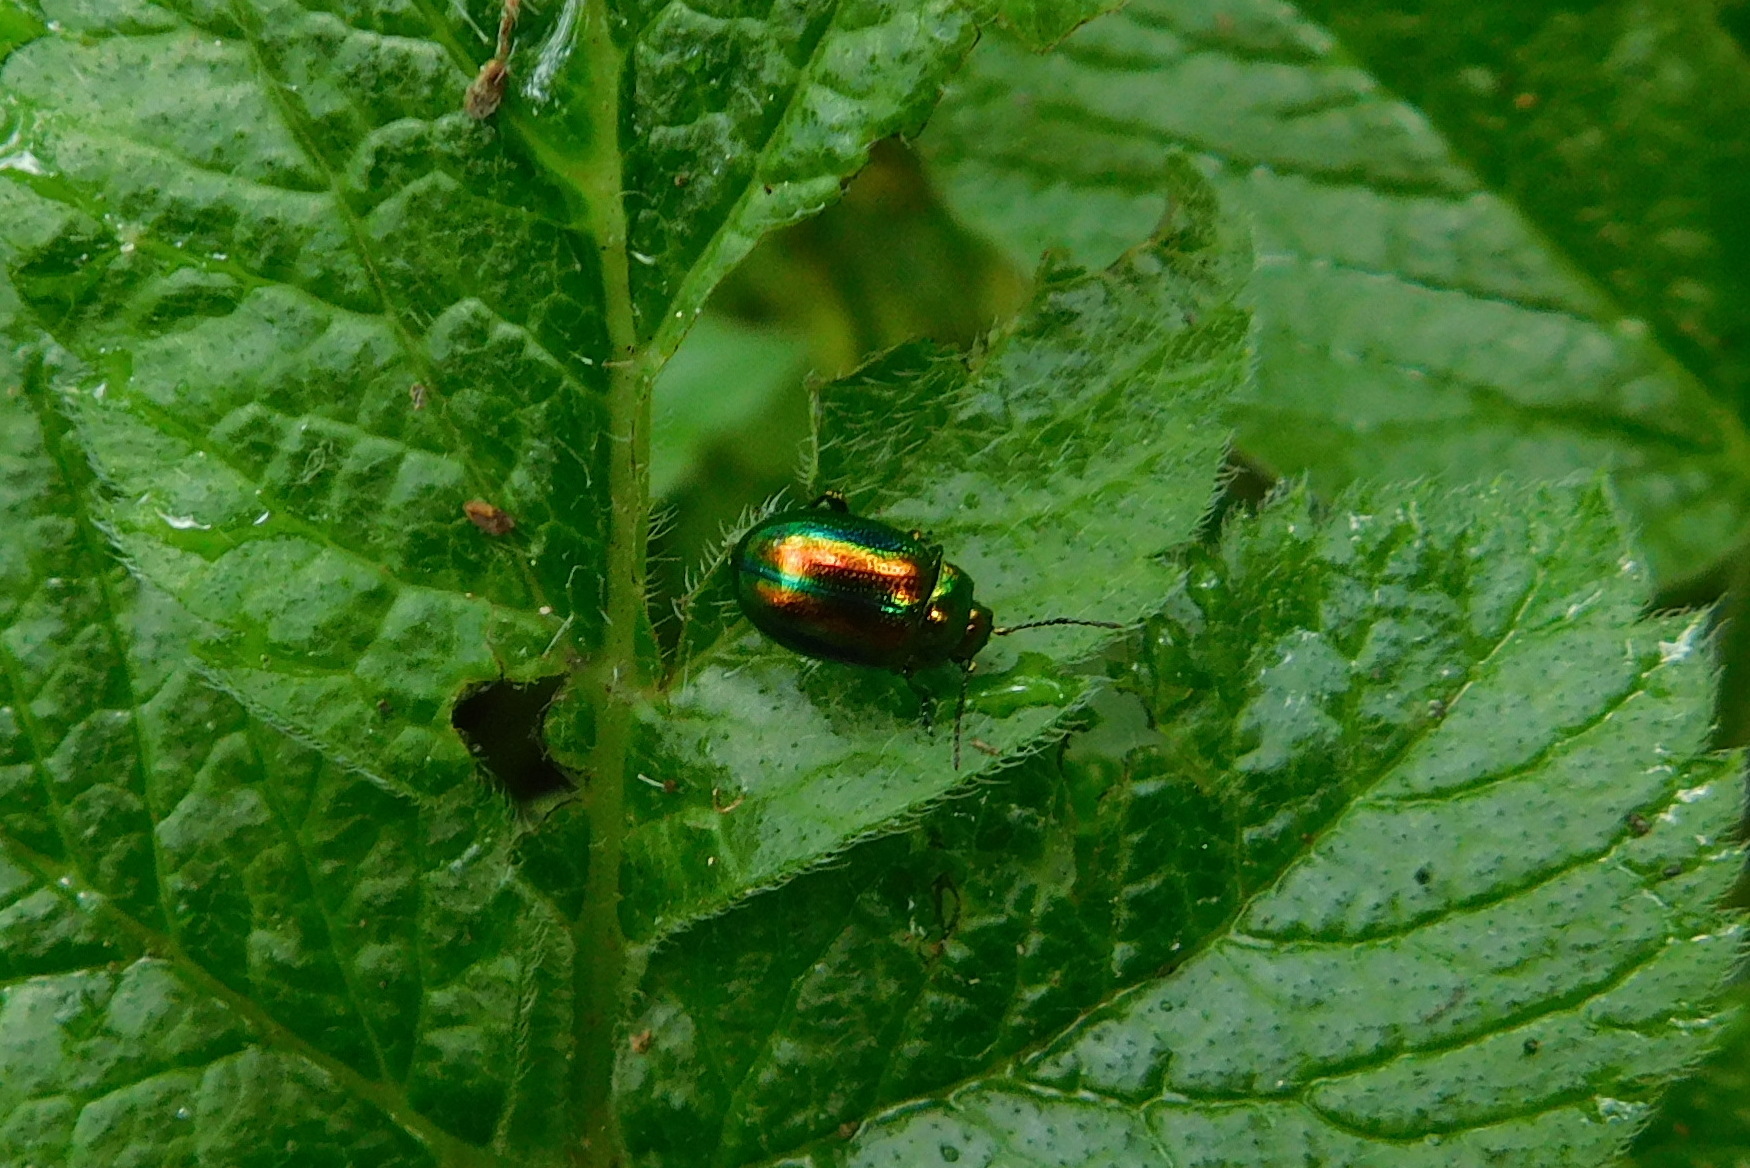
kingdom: Animalia
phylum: Arthropoda
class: Insecta
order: Coleoptera
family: Chrysomelidae
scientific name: Chrysomelidae
